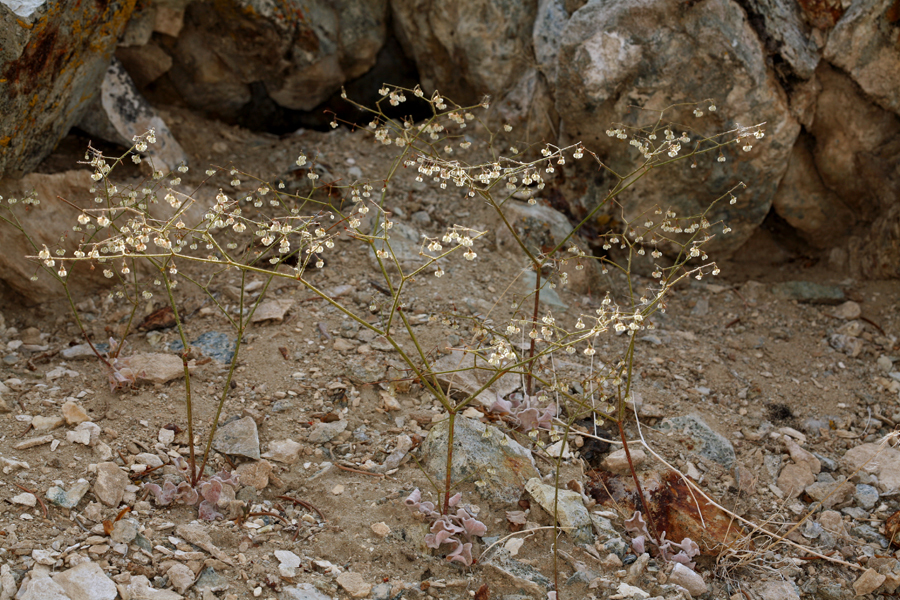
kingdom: Plantae
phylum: Tracheophyta
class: Magnoliopsida
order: Caryophyllales
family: Polygonaceae
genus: Eriogonum
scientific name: Eriogonum brachypodum
